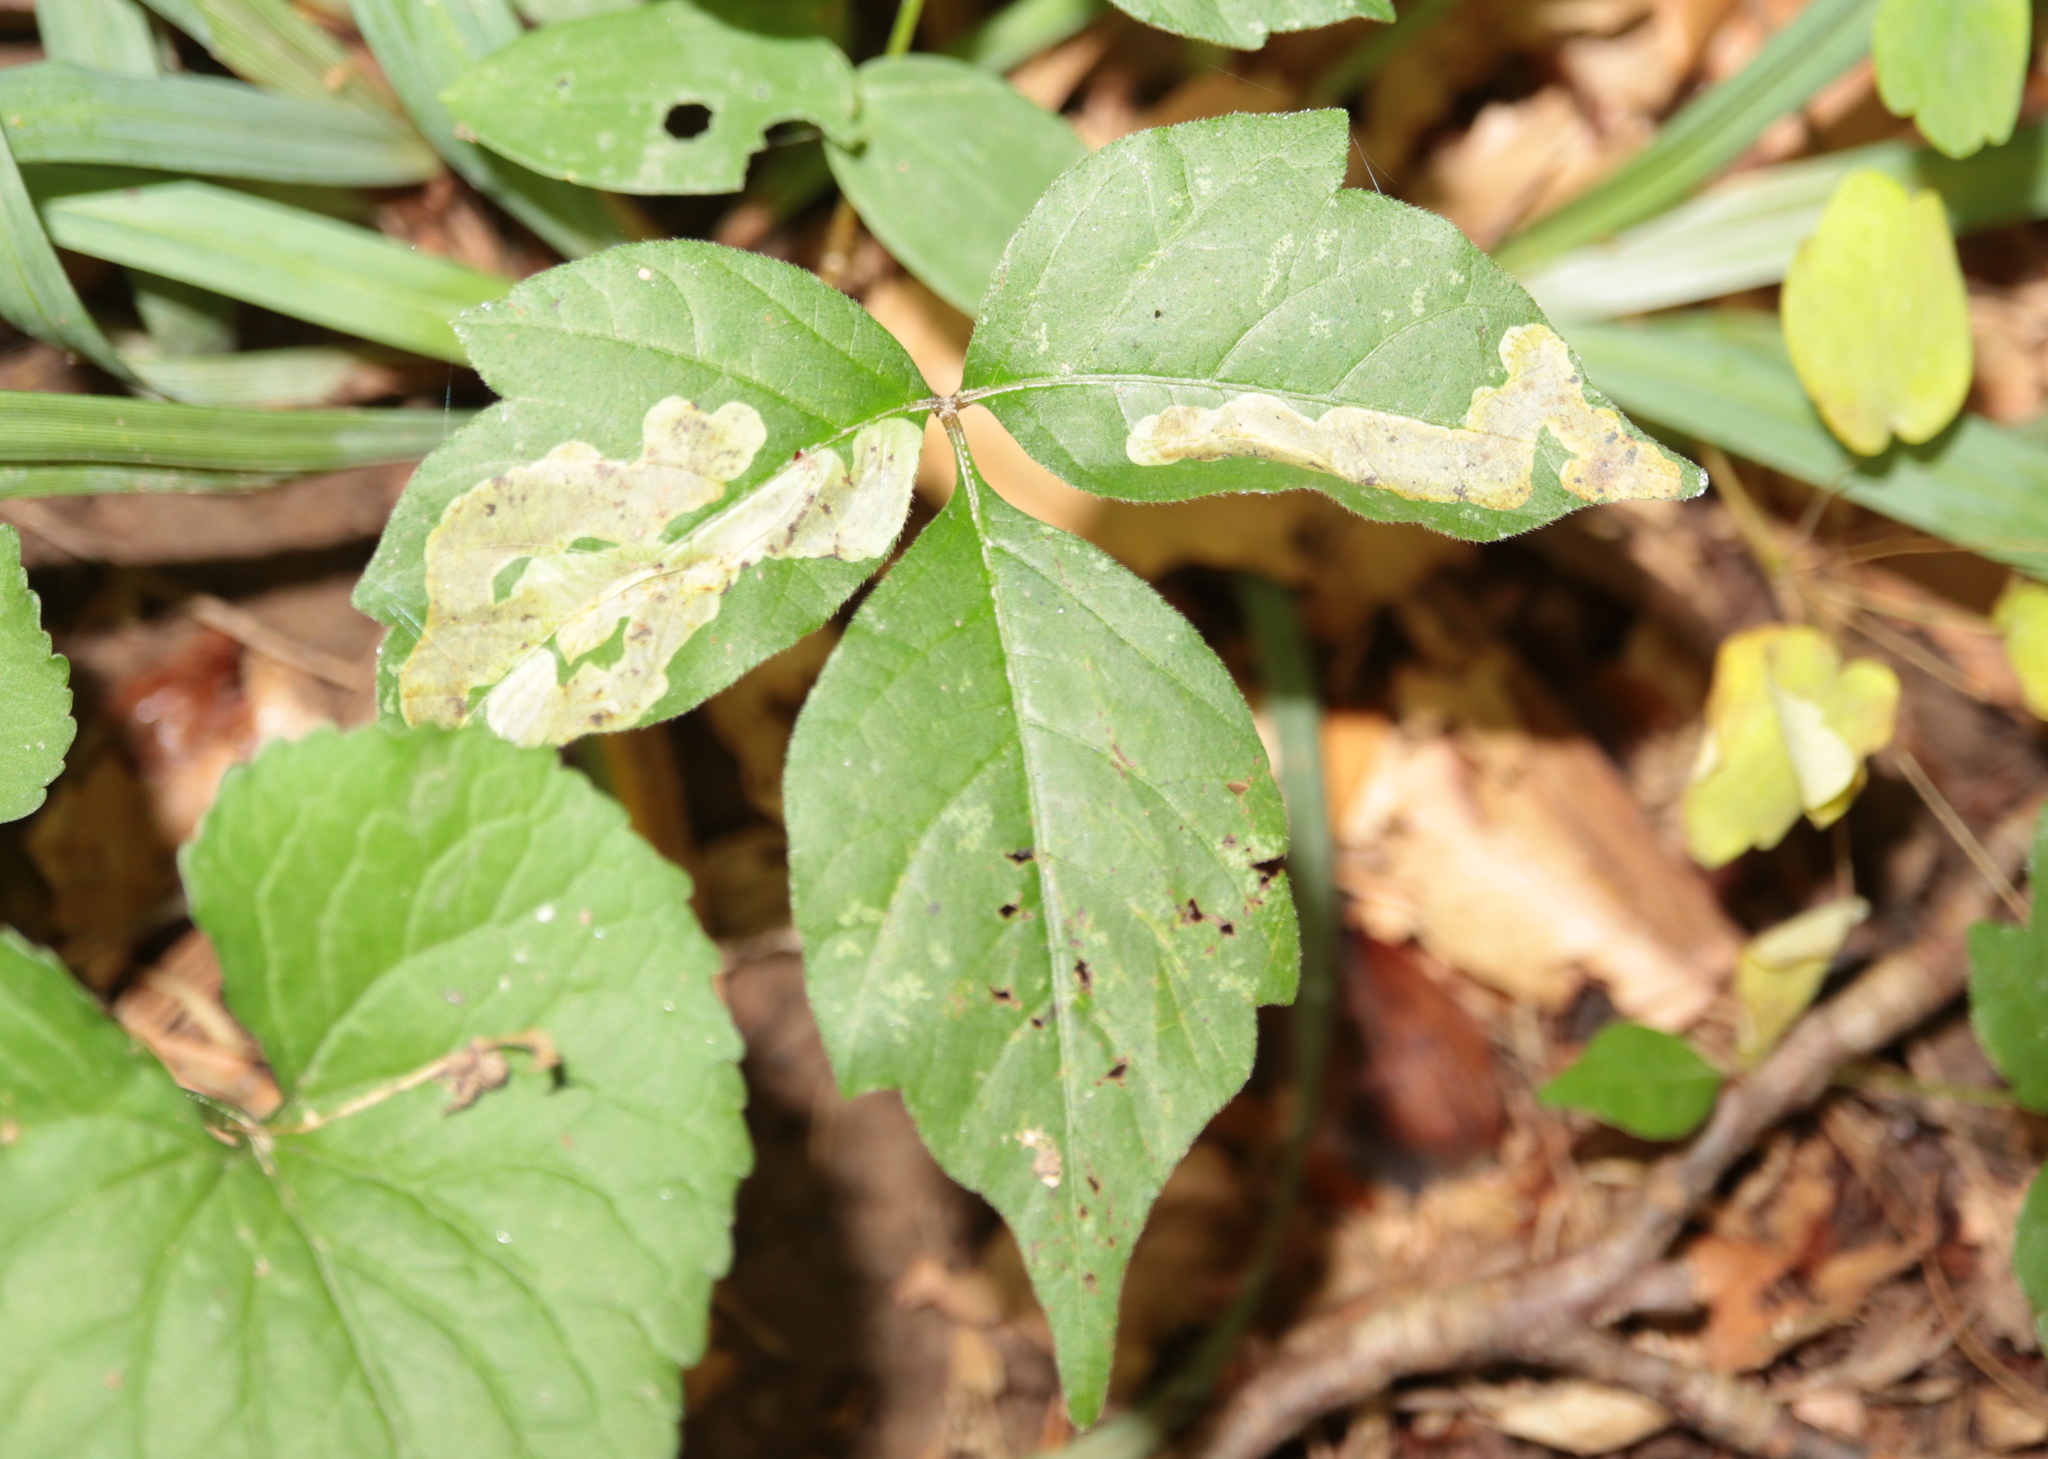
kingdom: Animalia
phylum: Arthropoda
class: Insecta
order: Lepidoptera
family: Gracillariidae
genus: Cameraria
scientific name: Cameraria guttifinitella
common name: Poison ivy leaf-miner moth
